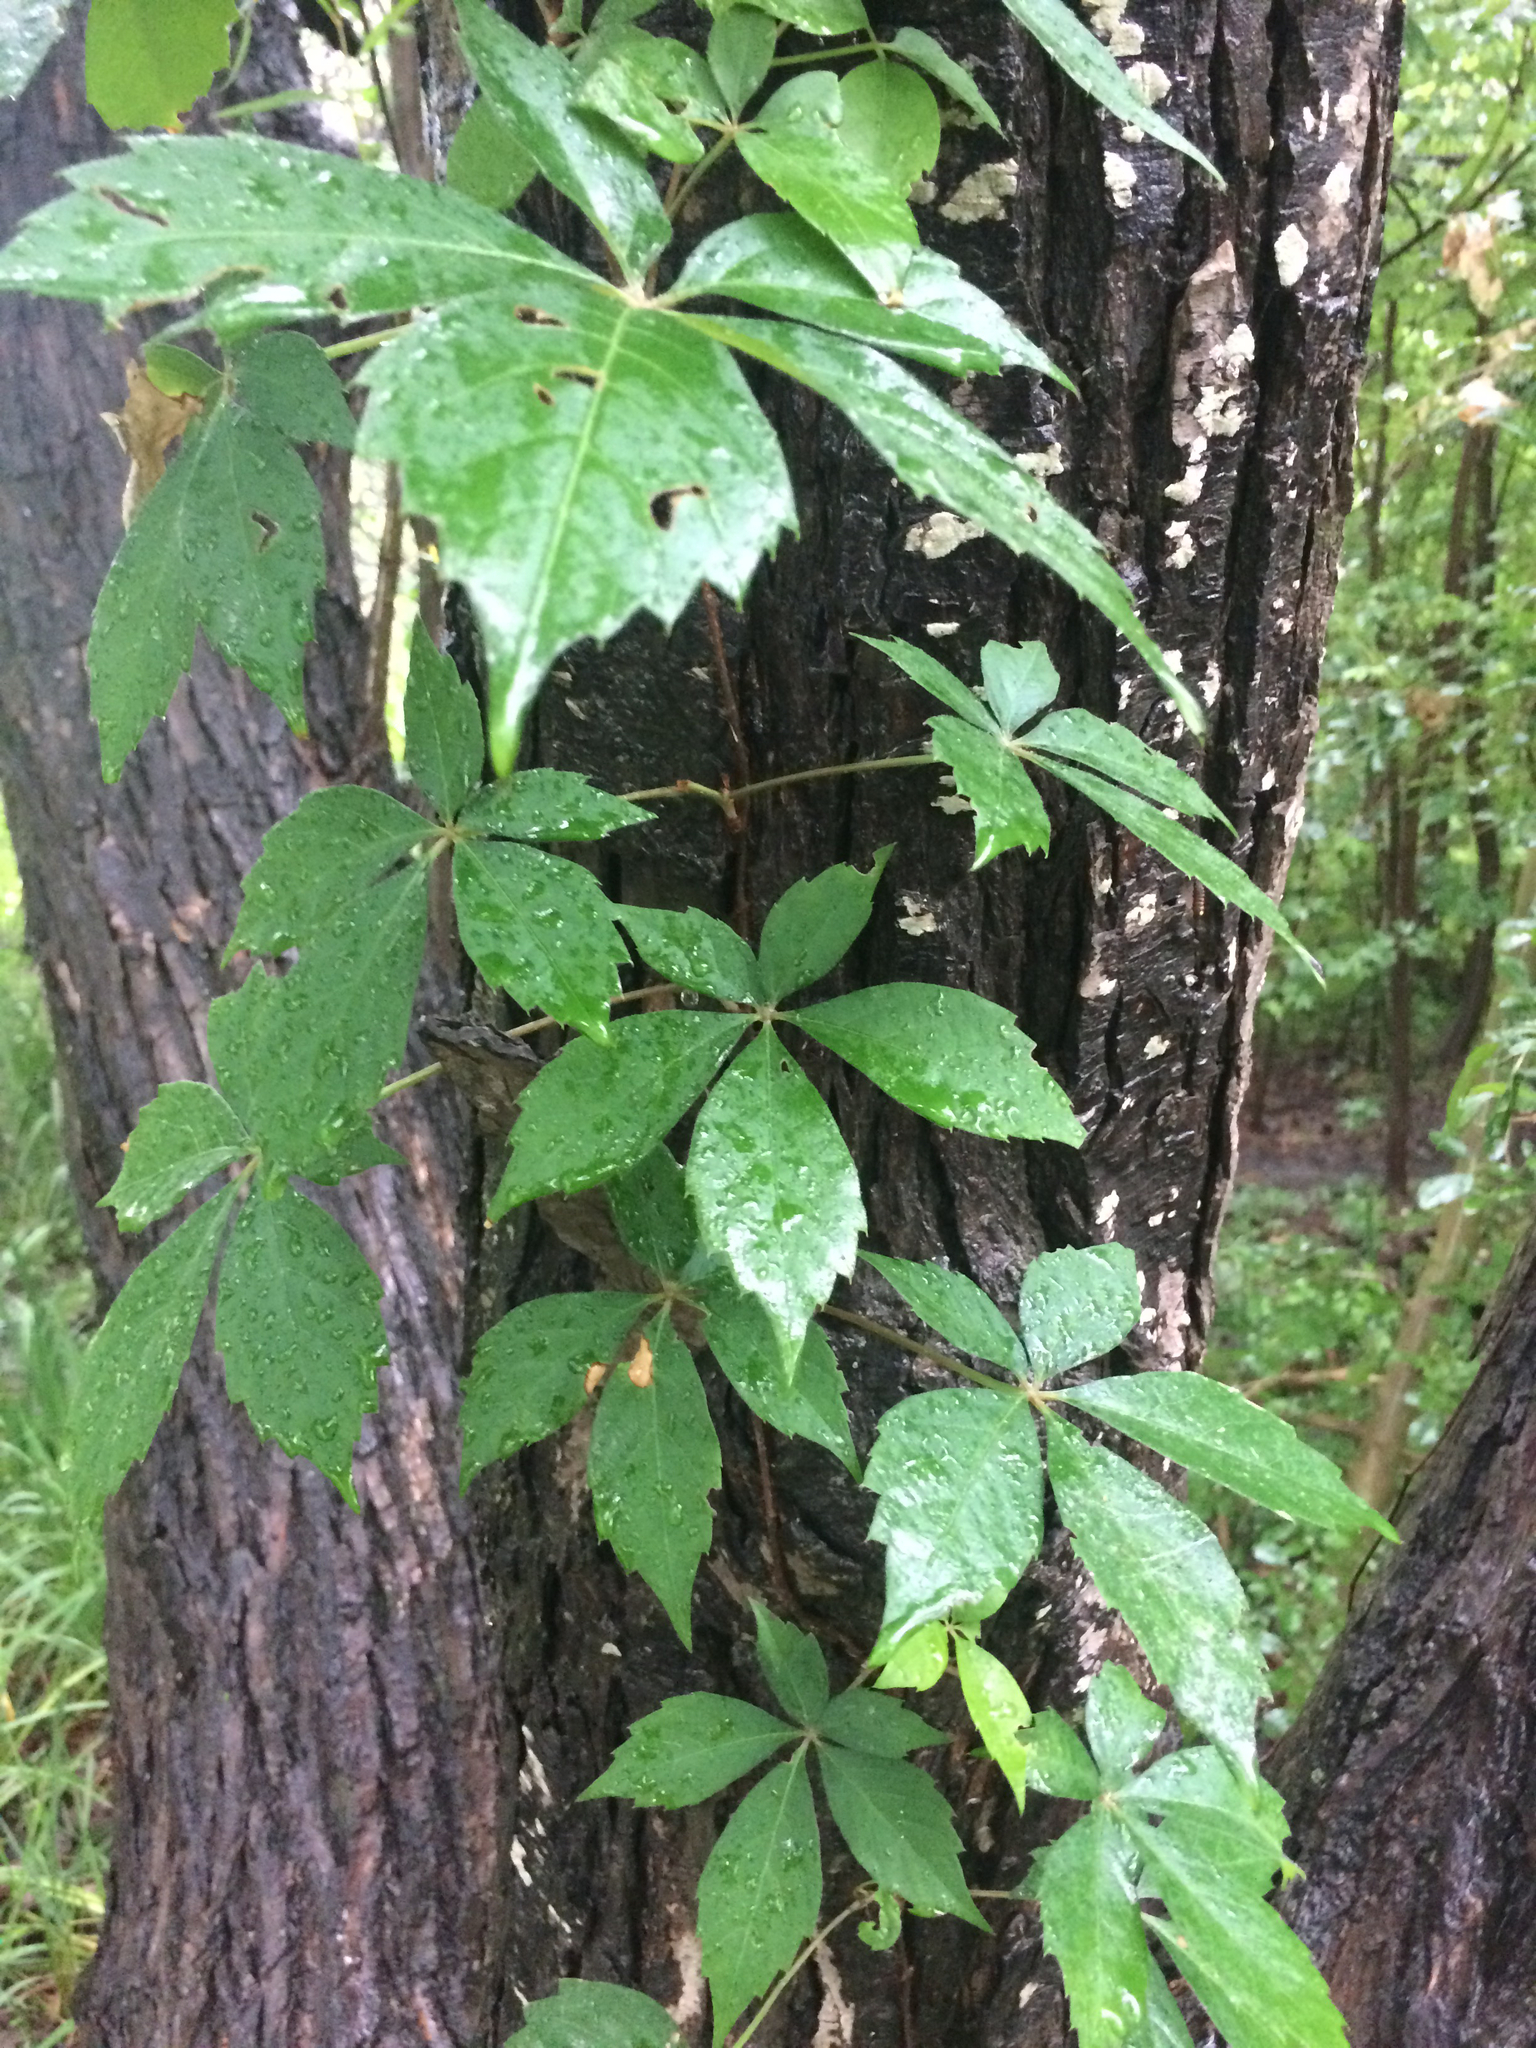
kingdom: Plantae
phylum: Tracheophyta
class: Magnoliopsida
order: Vitales
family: Vitaceae
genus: Parthenocissus
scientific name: Parthenocissus quinquefolia
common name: Virginia-creeper
